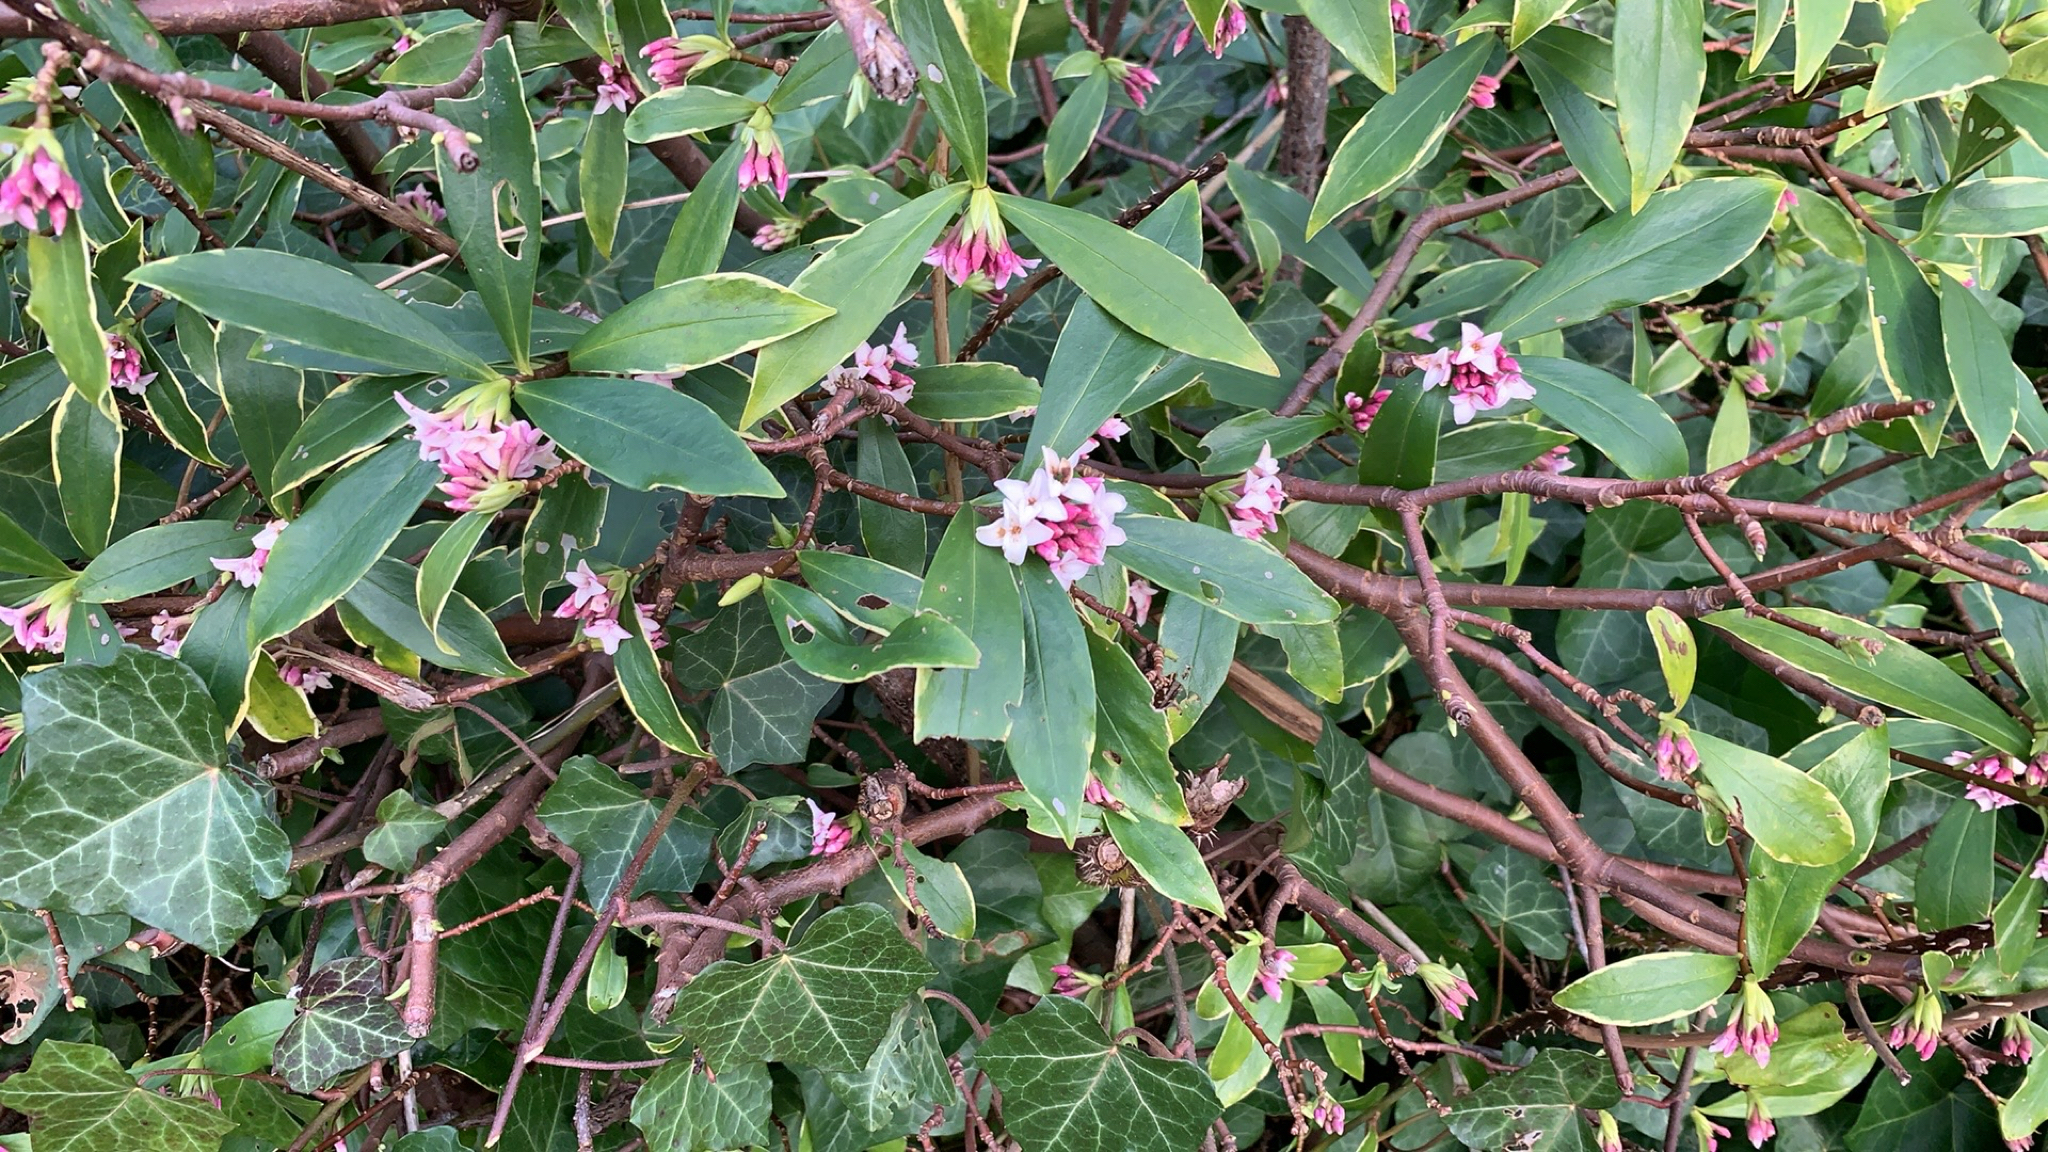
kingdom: Plantae
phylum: Tracheophyta
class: Magnoliopsida
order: Malvales
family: Thymelaeaceae
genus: Daphne
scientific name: Daphne odora
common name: Winter daphne
